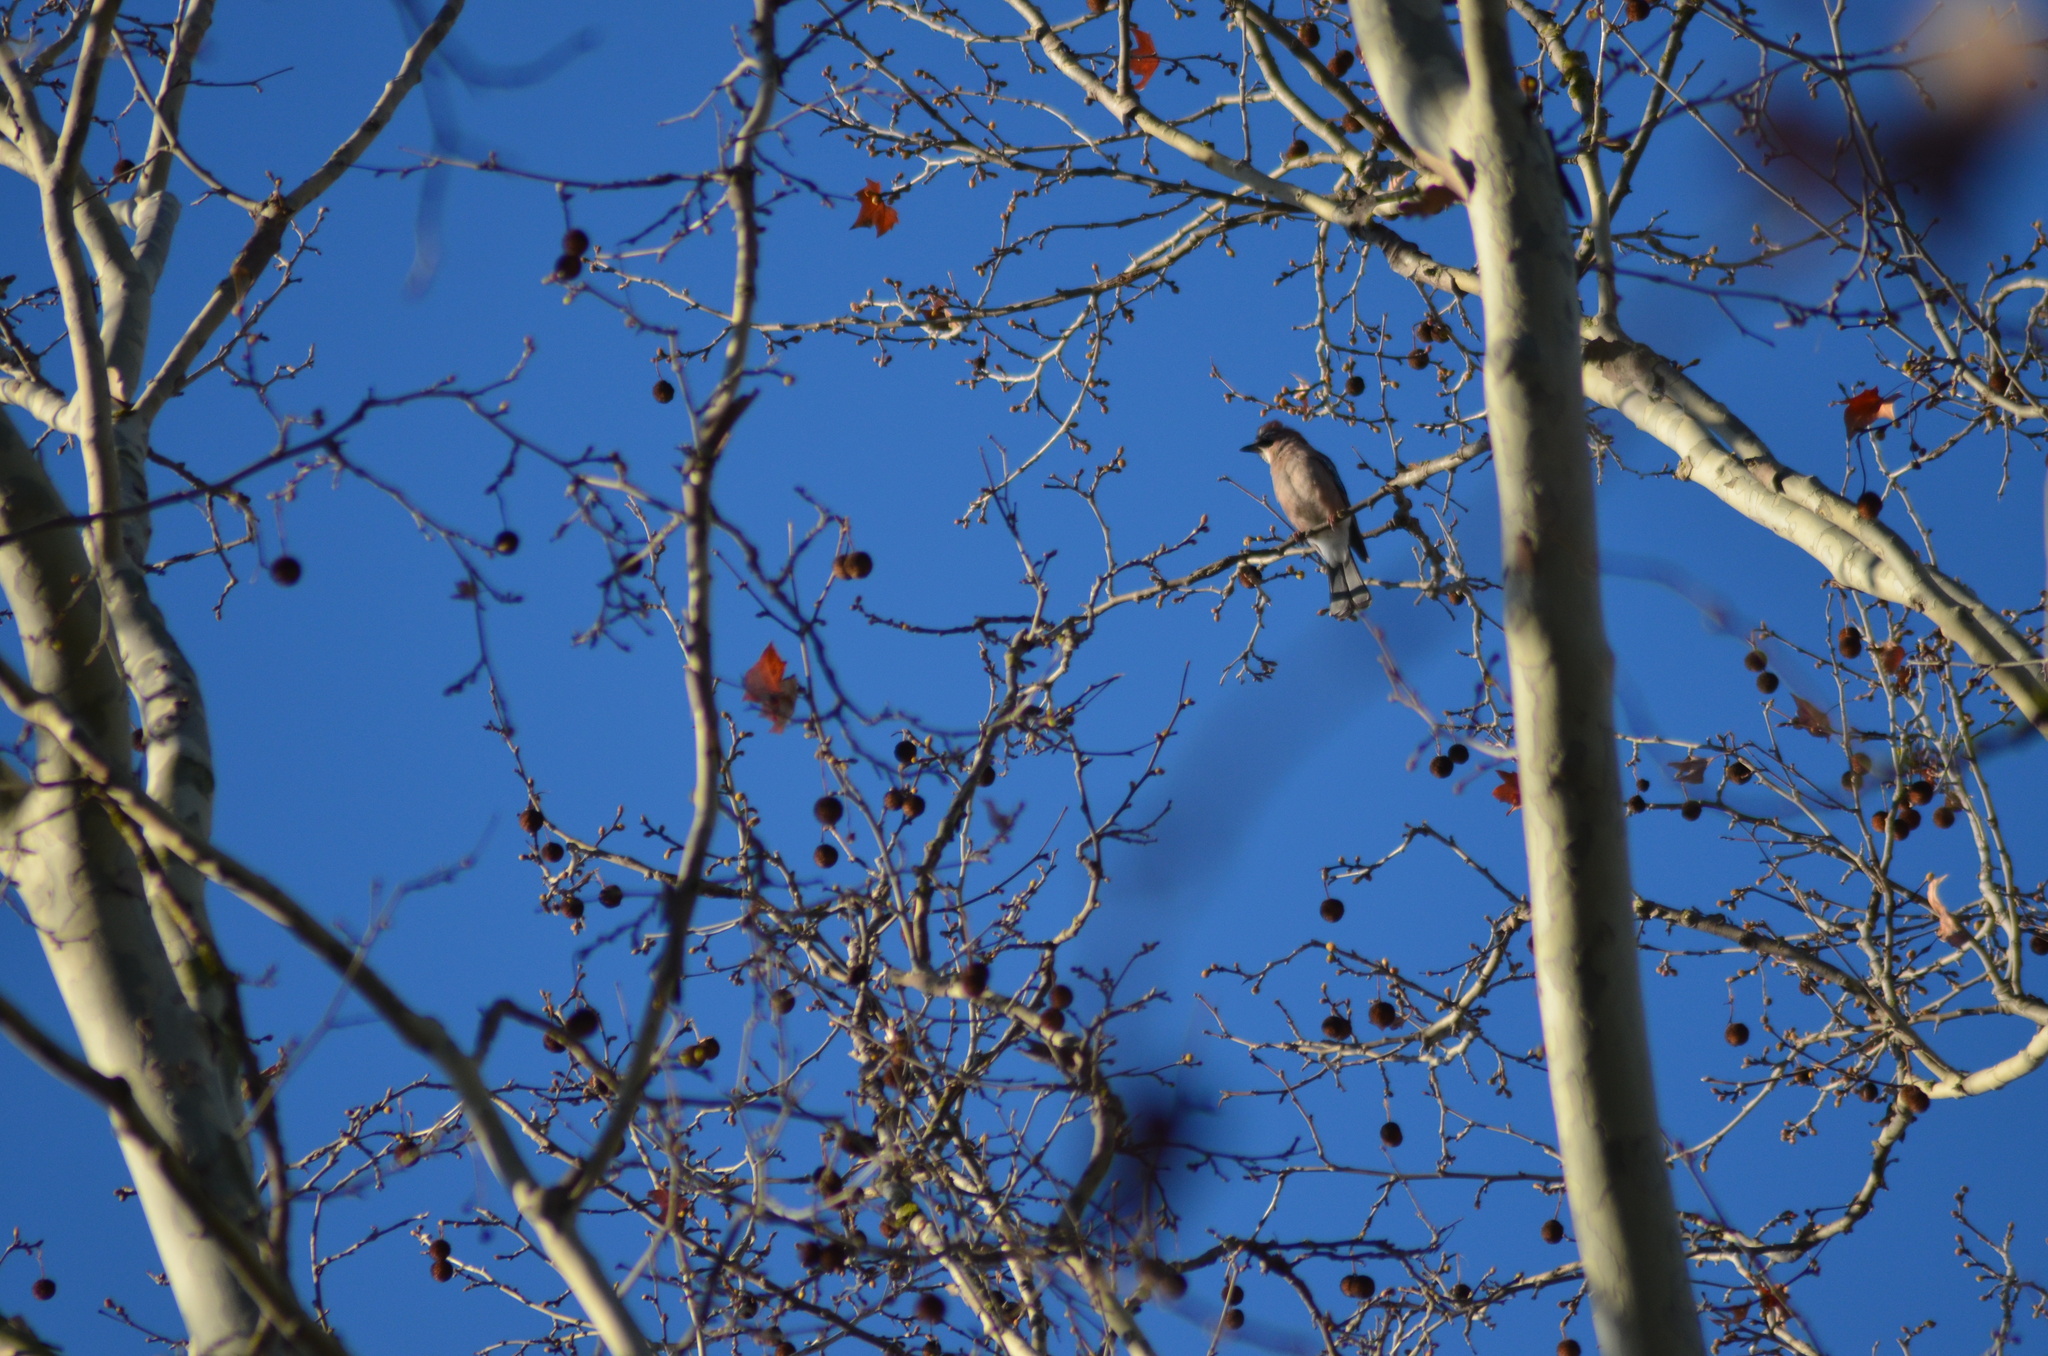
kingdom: Animalia
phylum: Chordata
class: Aves
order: Passeriformes
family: Corvidae
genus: Garrulus
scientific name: Garrulus glandarius
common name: Eurasian jay
